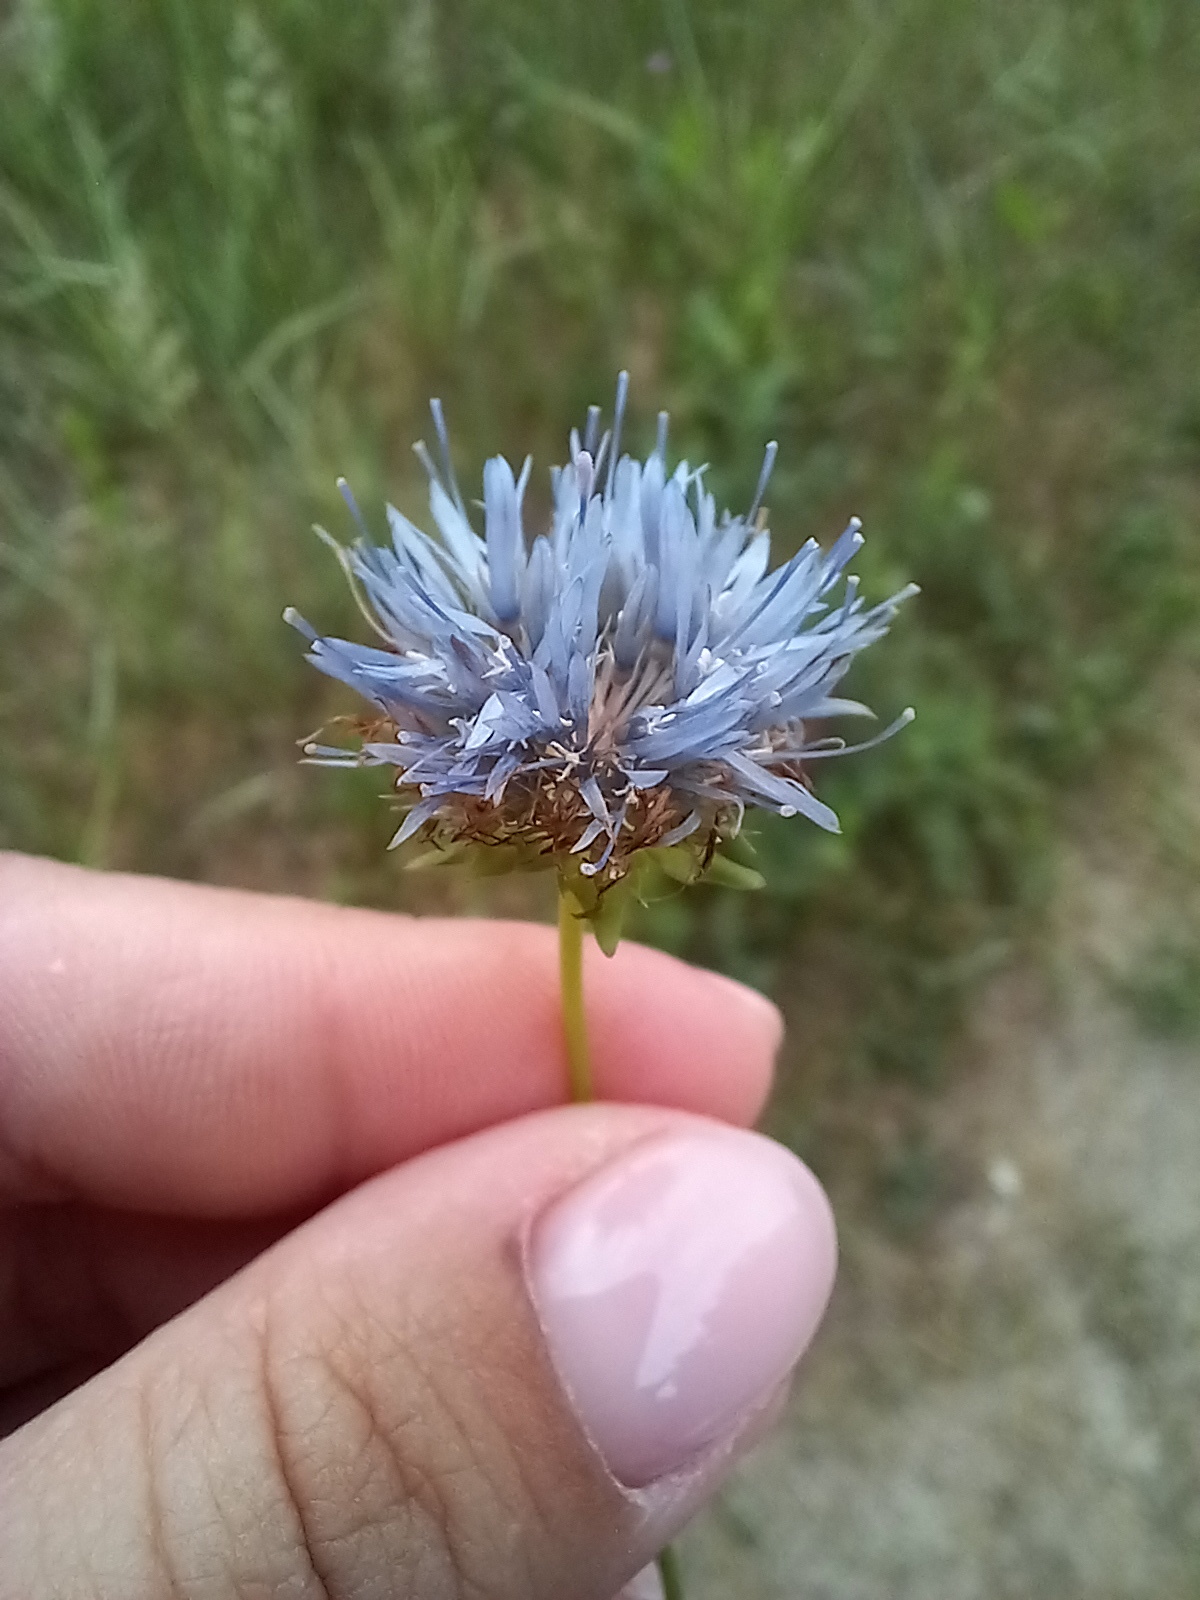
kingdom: Plantae
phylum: Tracheophyta
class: Magnoliopsida
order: Asterales
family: Campanulaceae
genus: Jasione
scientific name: Jasione montana
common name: Sheep's-bit
